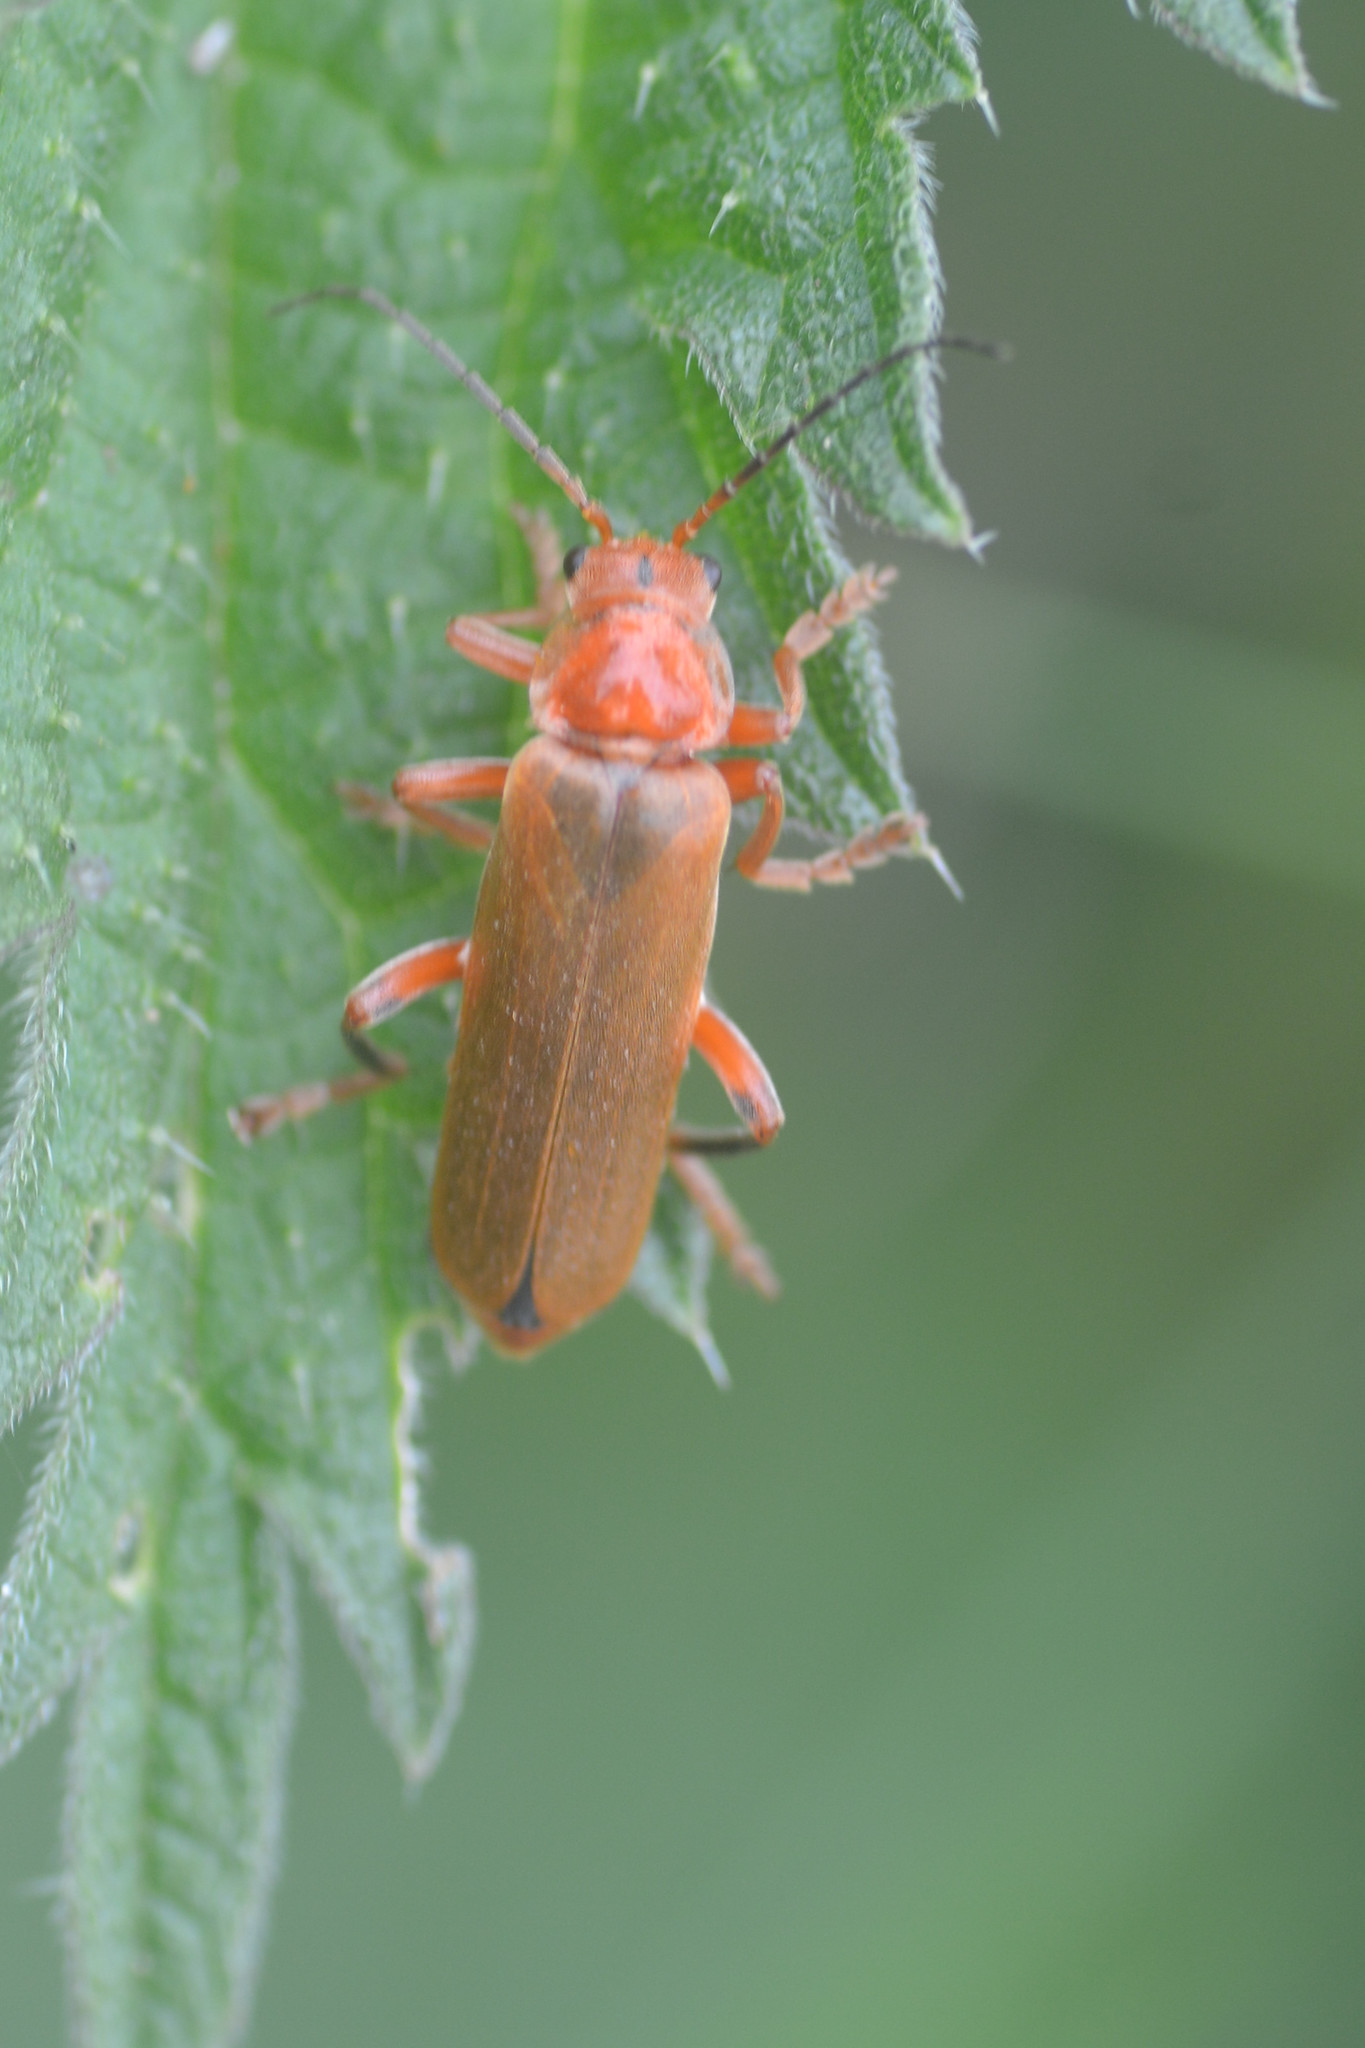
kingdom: Animalia
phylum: Arthropoda
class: Insecta
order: Coleoptera
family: Cantharidae
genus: Cantharis
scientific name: Cantharis livida
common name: Livid soldier beetle
